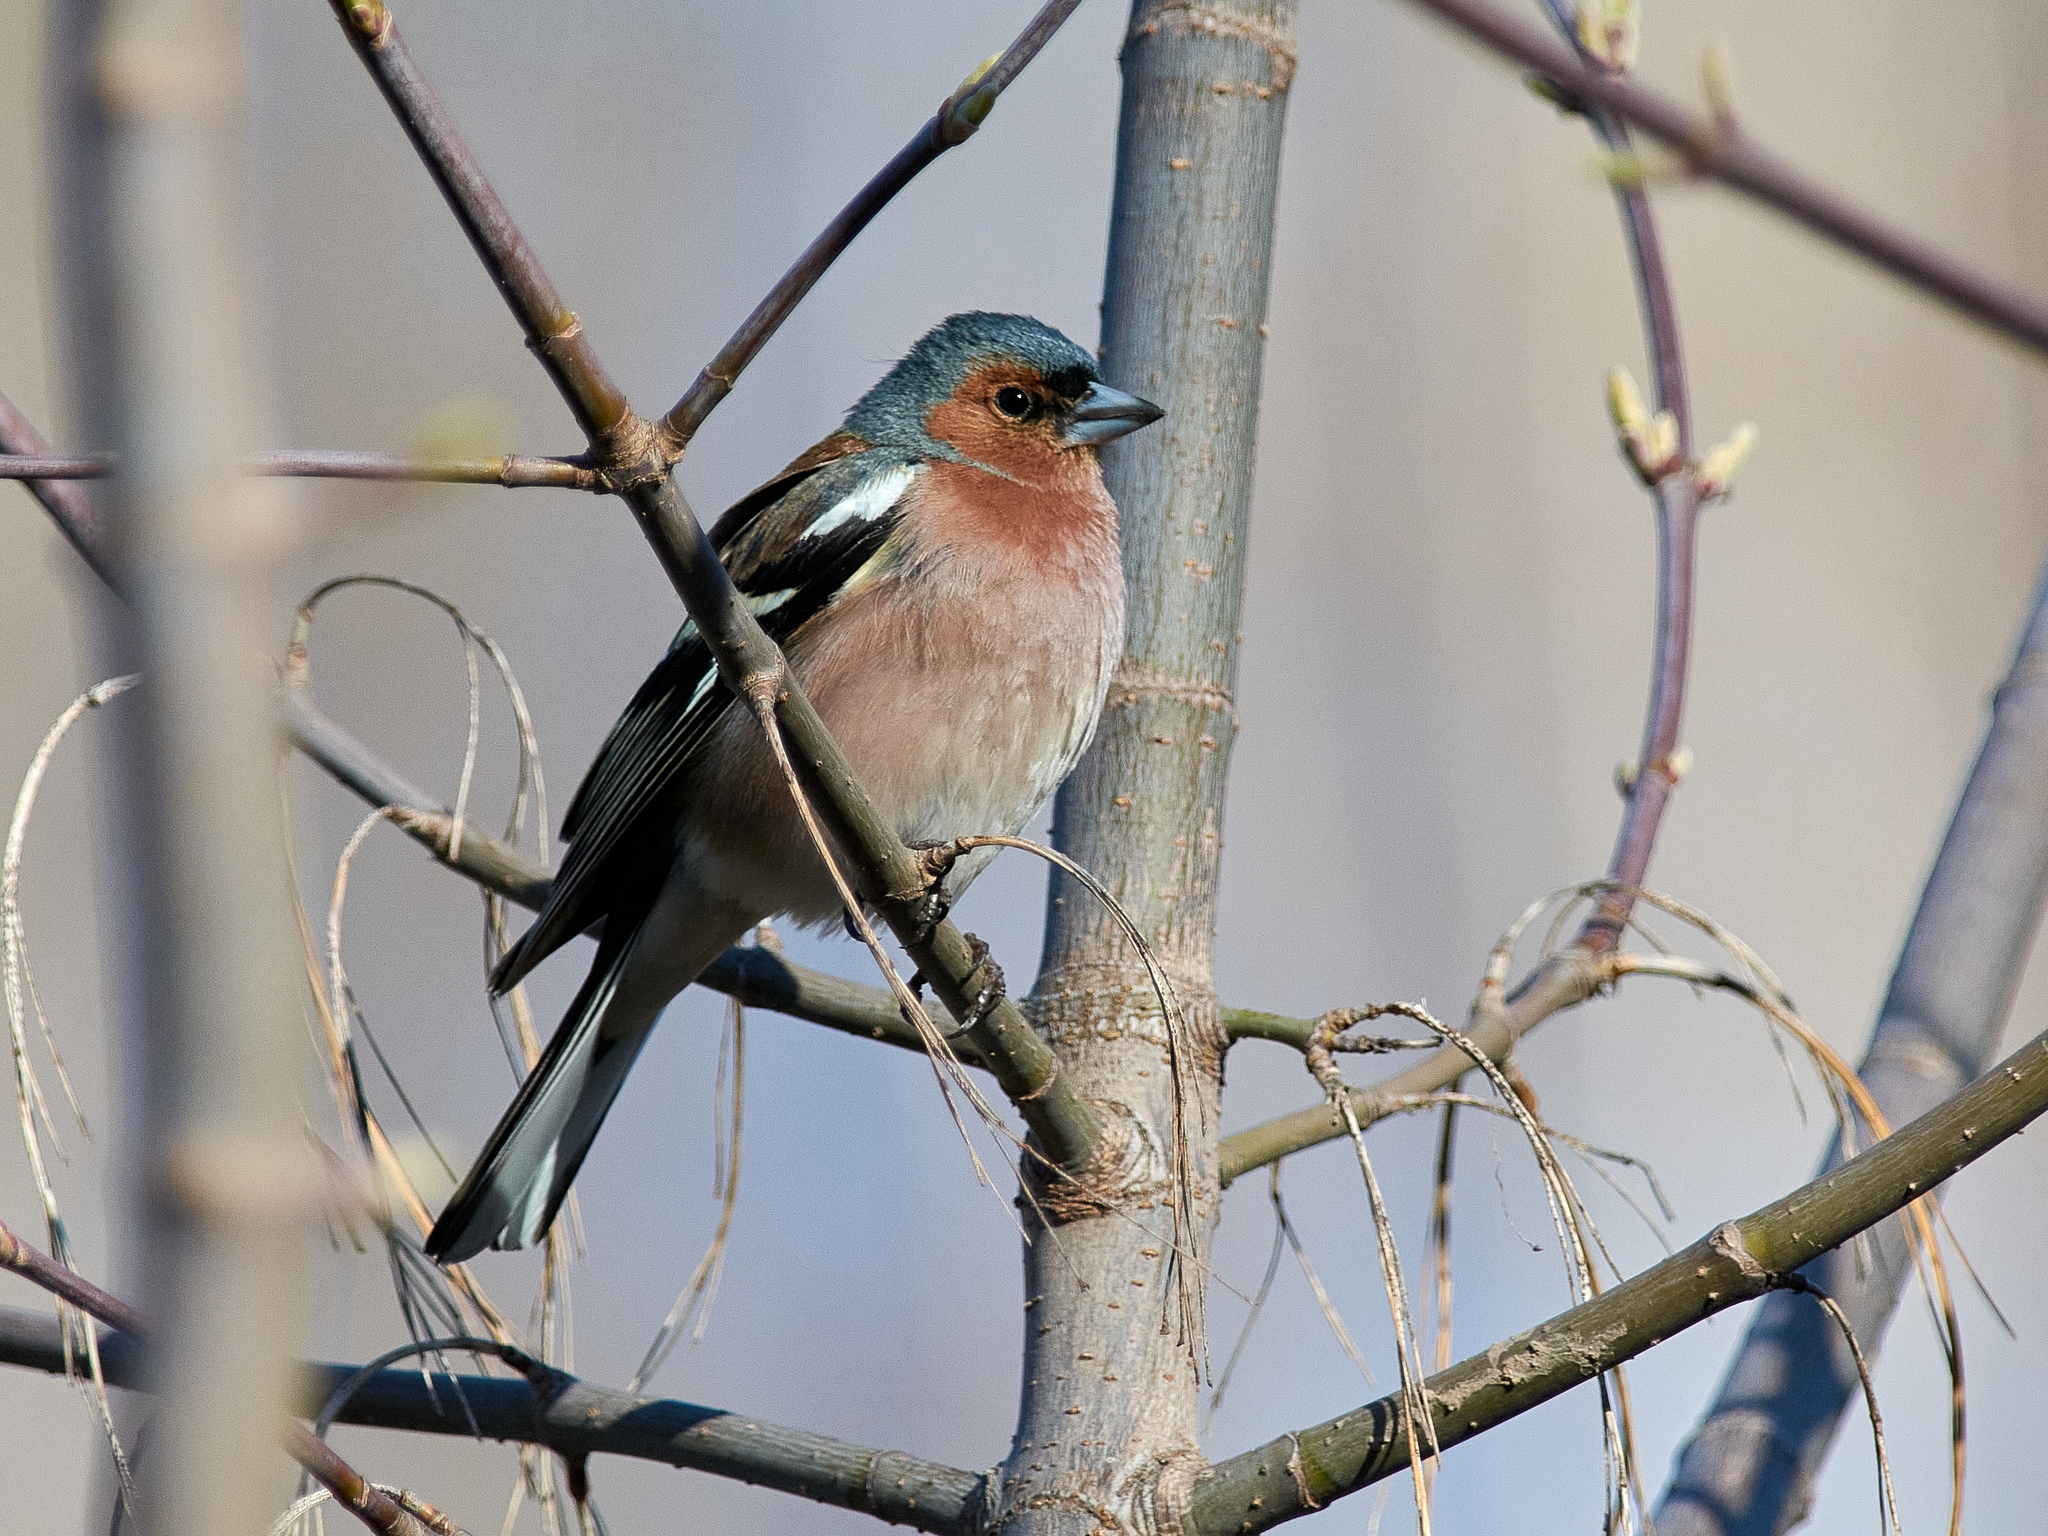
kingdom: Animalia
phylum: Chordata
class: Aves
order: Passeriformes
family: Fringillidae
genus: Fringilla
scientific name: Fringilla coelebs
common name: Common chaffinch
